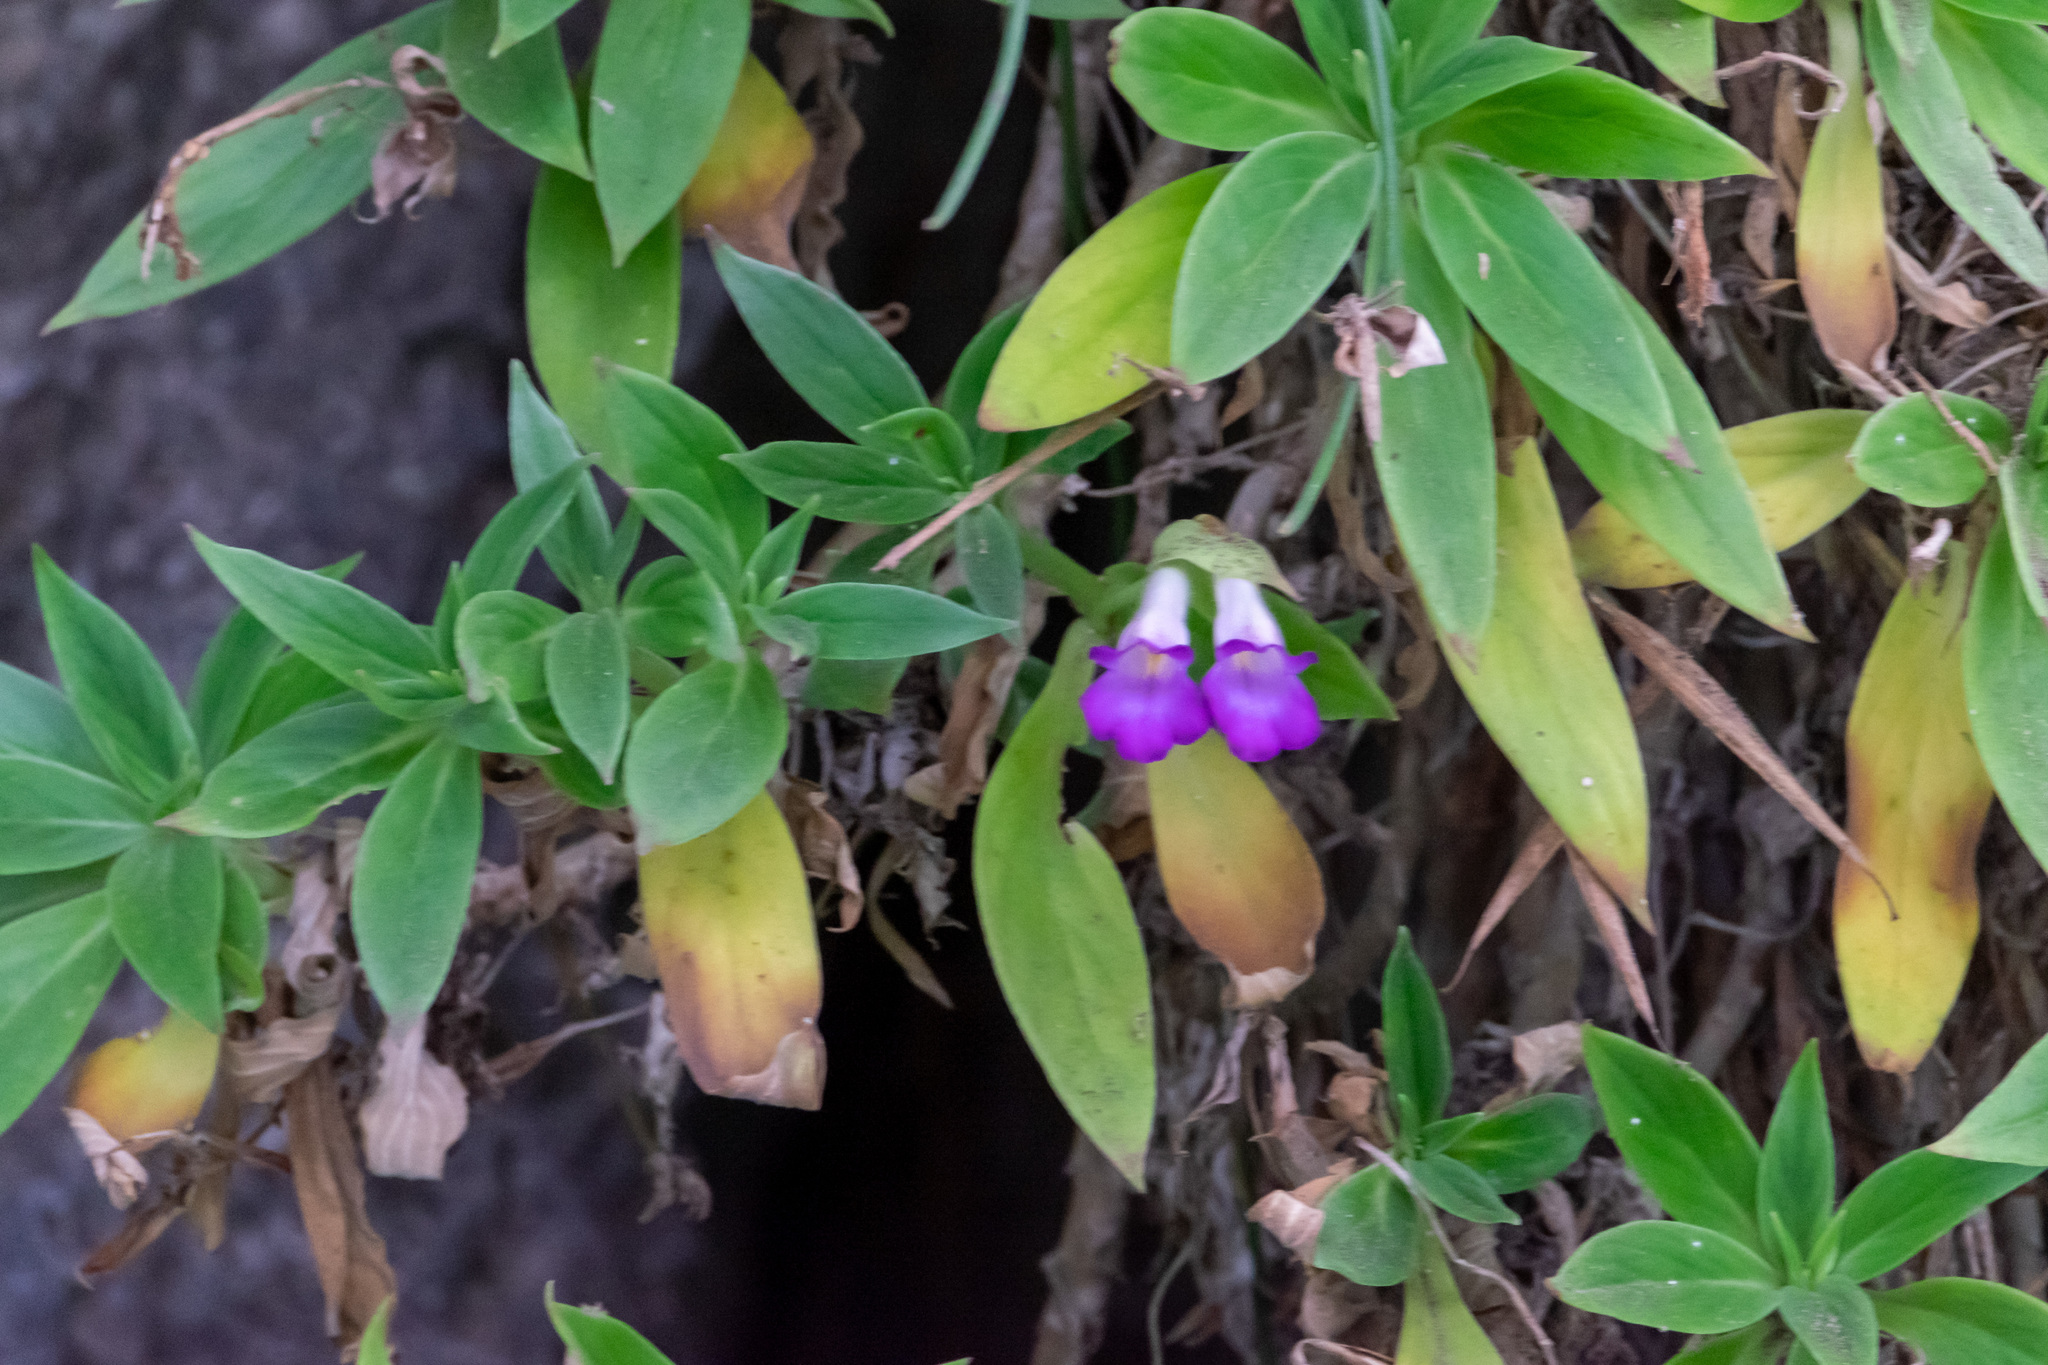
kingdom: Plantae
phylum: Tracheophyta
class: Magnoliopsida
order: Lamiales
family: Gesneriaceae
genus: Primulina
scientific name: Primulina drakei
